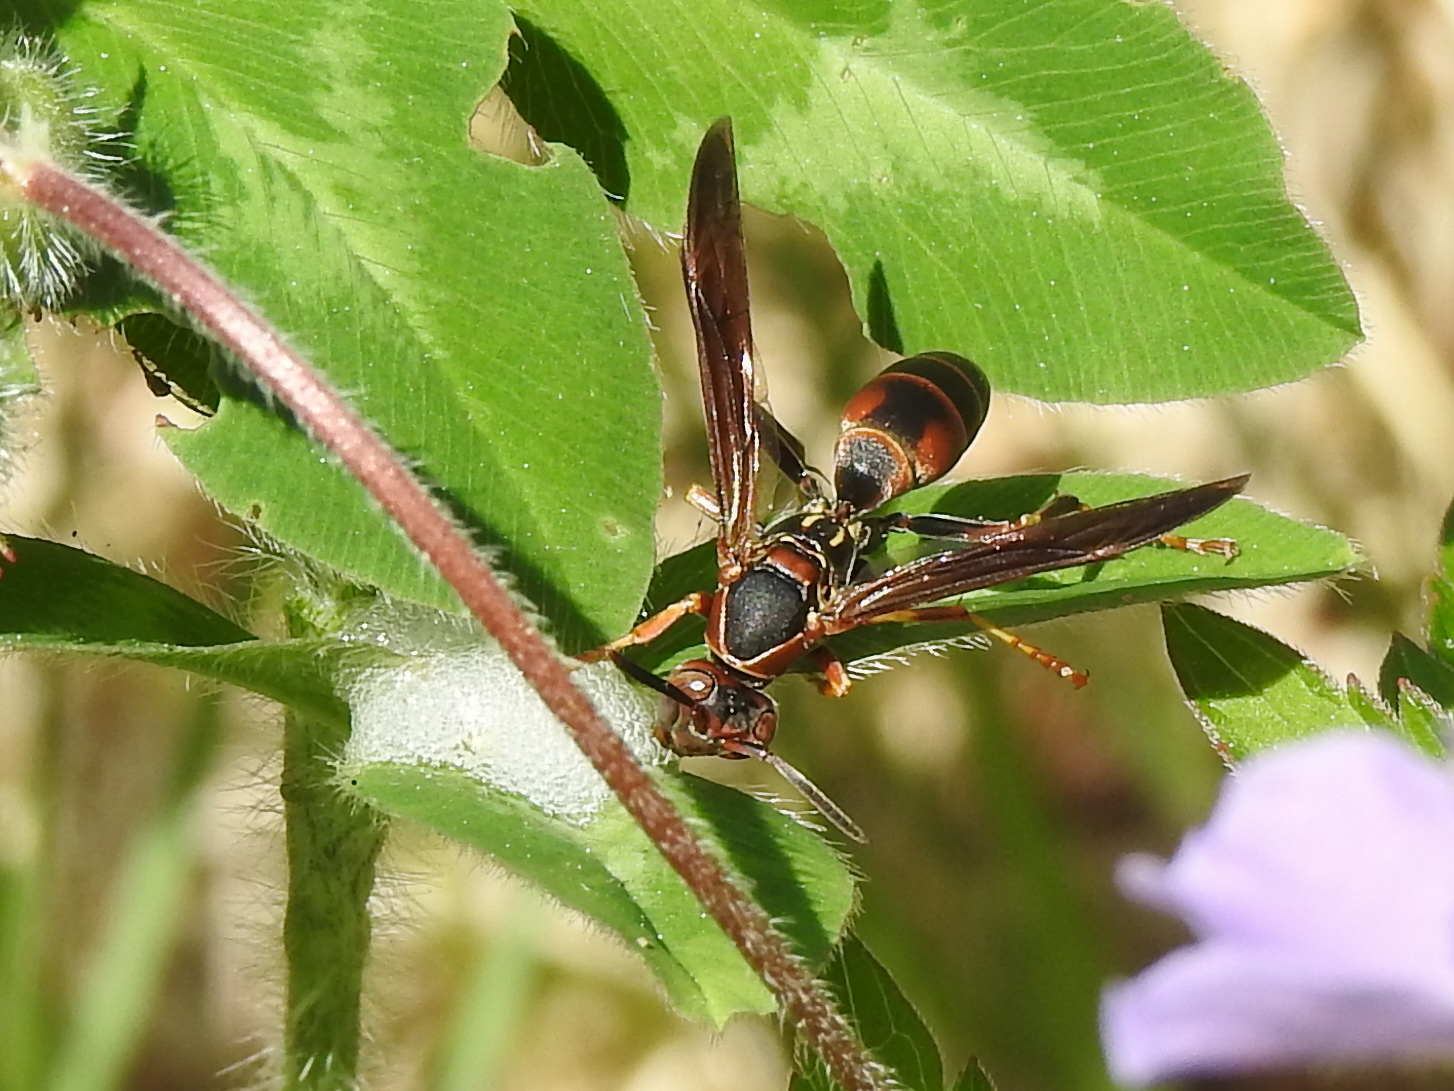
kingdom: Animalia
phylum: Arthropoda
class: Insecta
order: Hymenoptera
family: Eumenidae
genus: Polistes
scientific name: Polistes fuscatus
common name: Dark paper wasp
